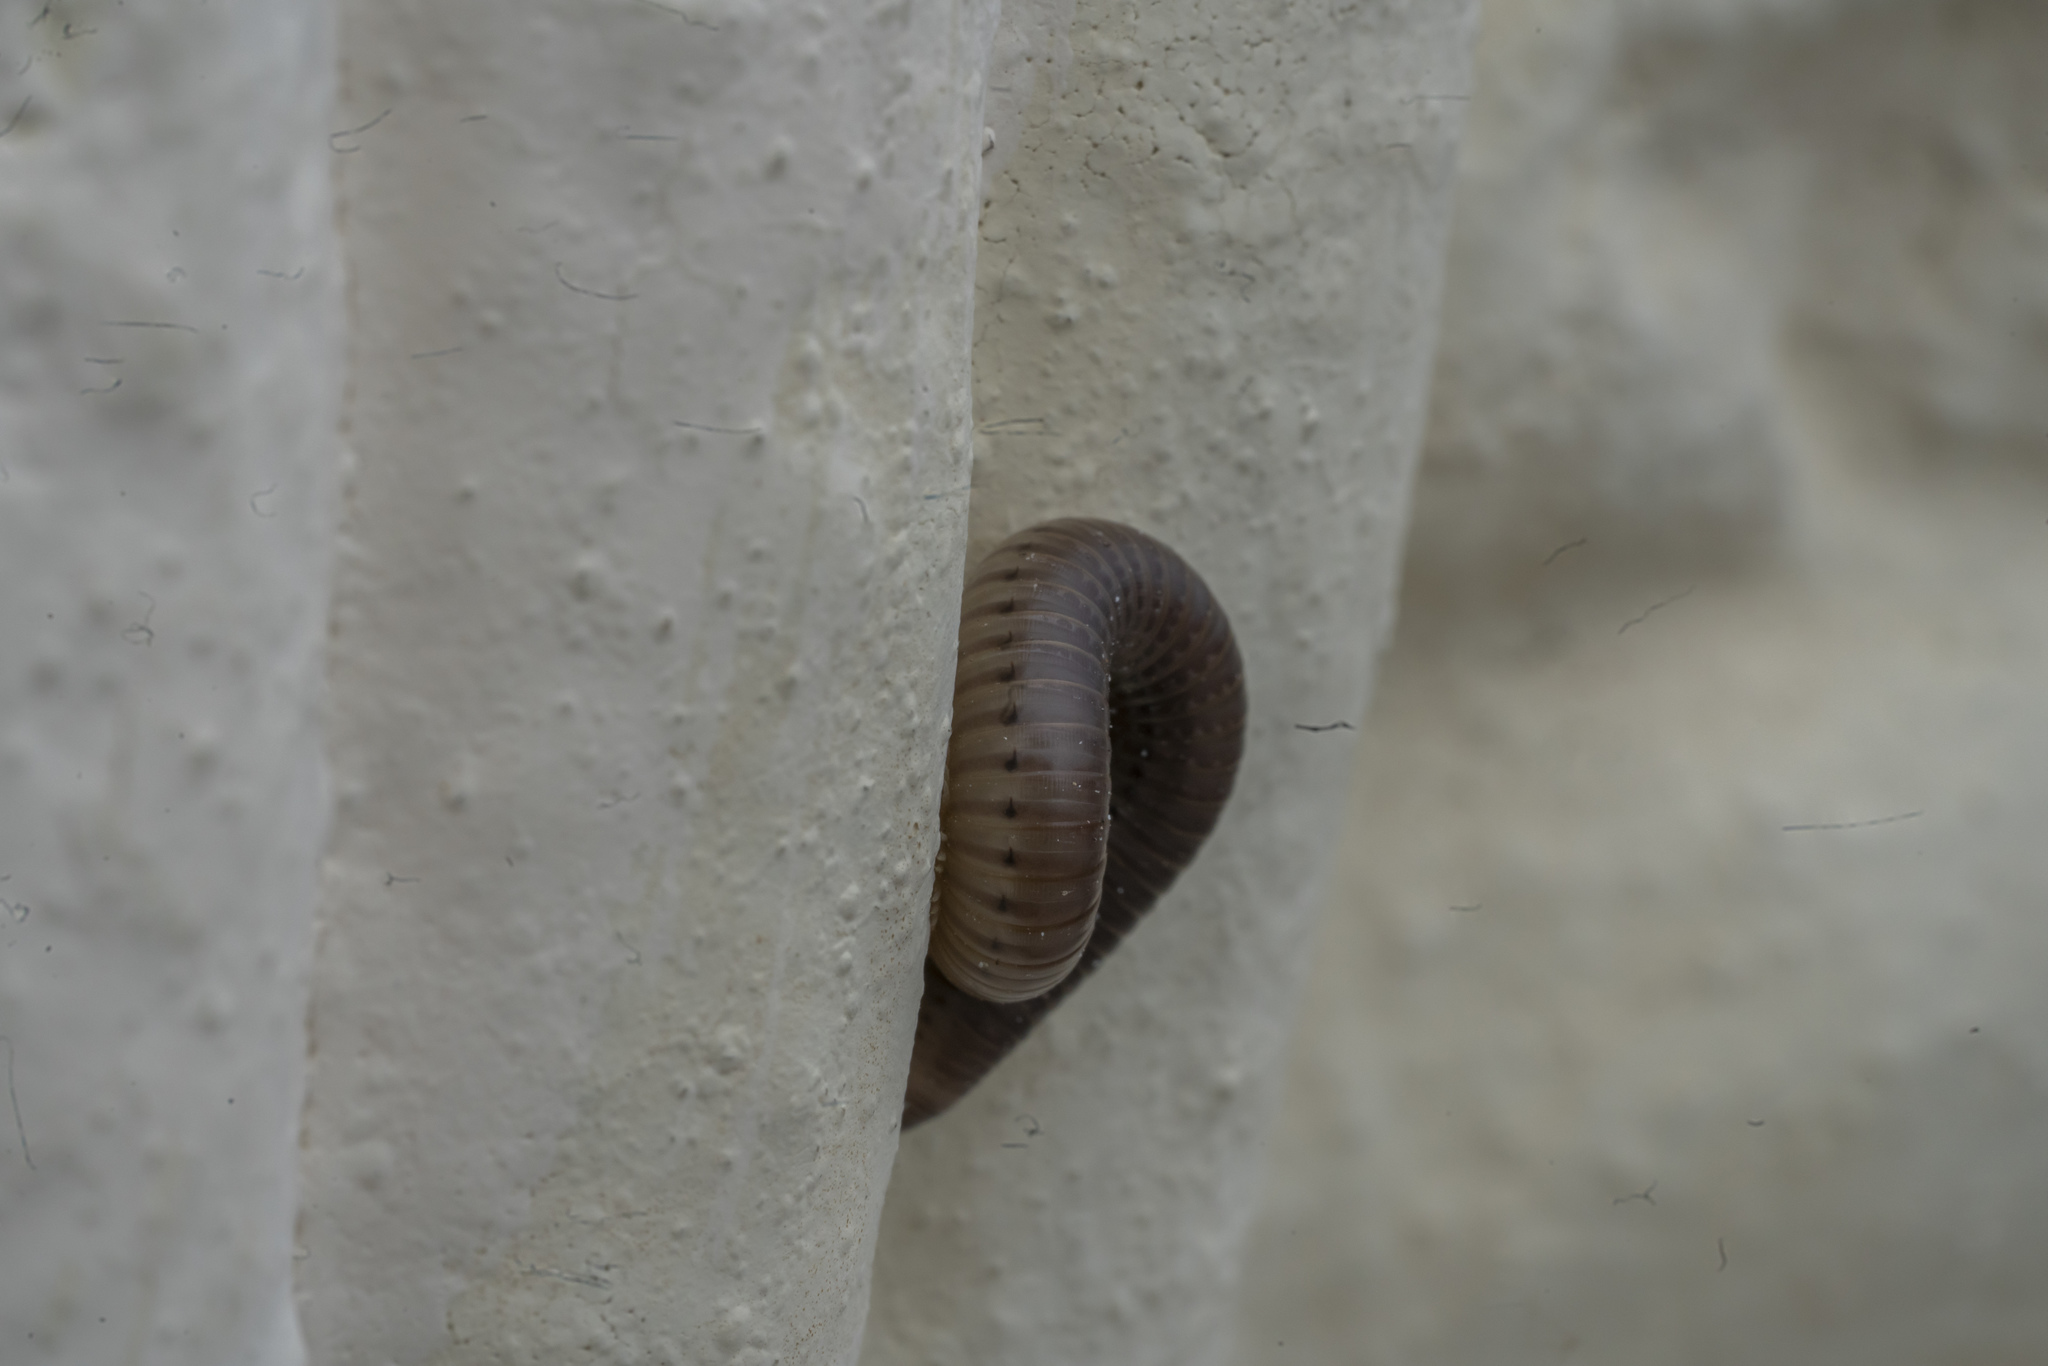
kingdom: Animalia
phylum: Arthropoda
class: Diplopoda
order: Julida
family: Julidae
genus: Pachyiulus
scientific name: Pachyiulus flavipes
